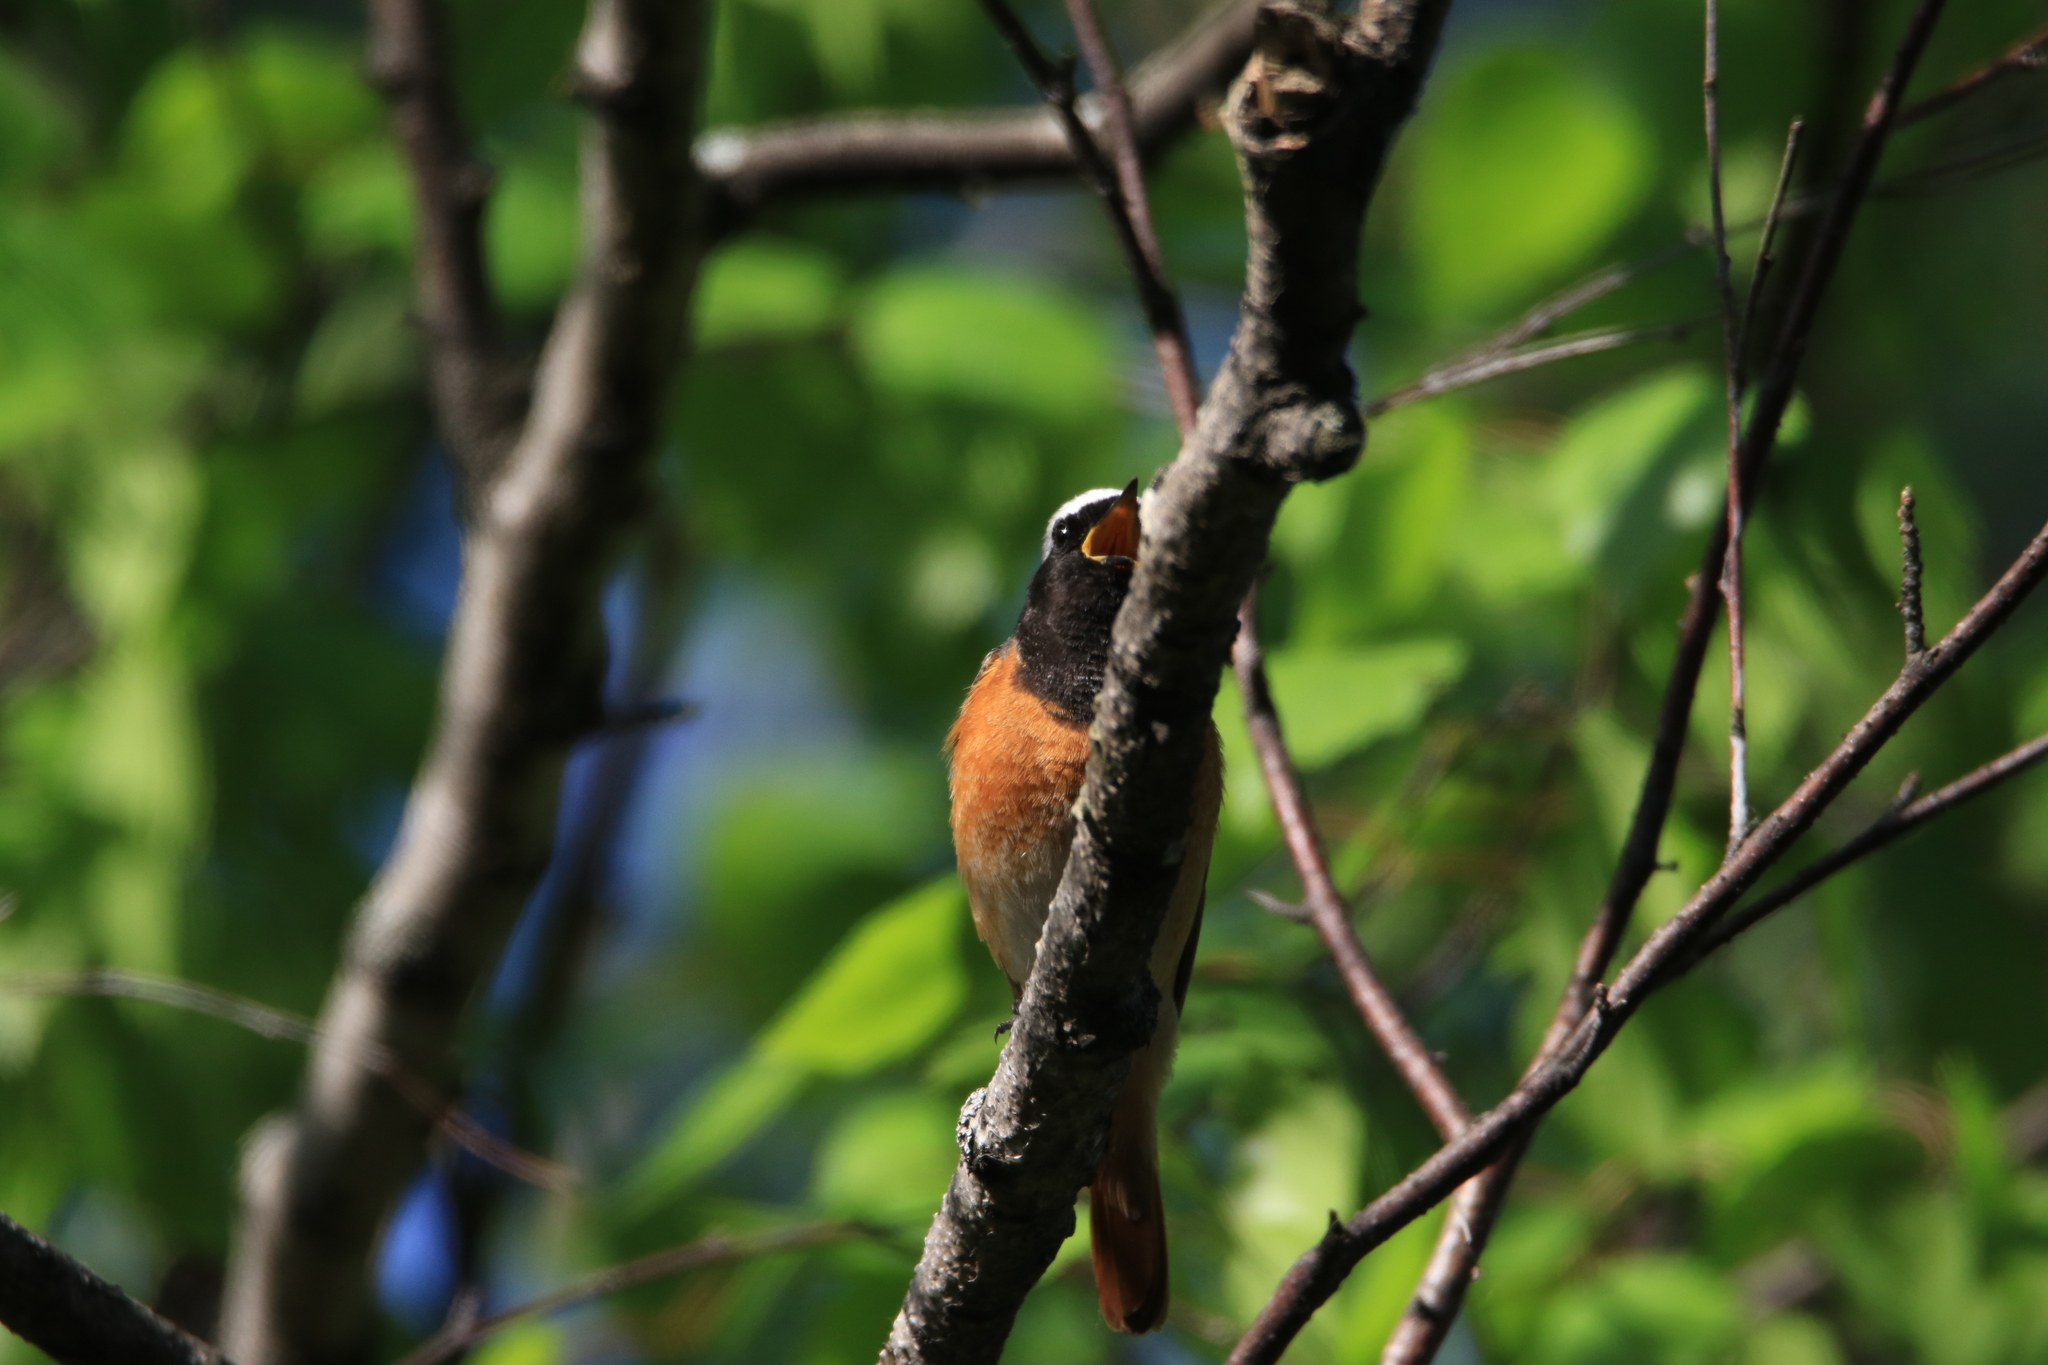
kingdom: Animalia
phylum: Chordata
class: Aves
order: Passeriformes
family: Muscicapidae
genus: Phoenicurus
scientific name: Phoenicurus phoenicurus
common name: Common redstart
